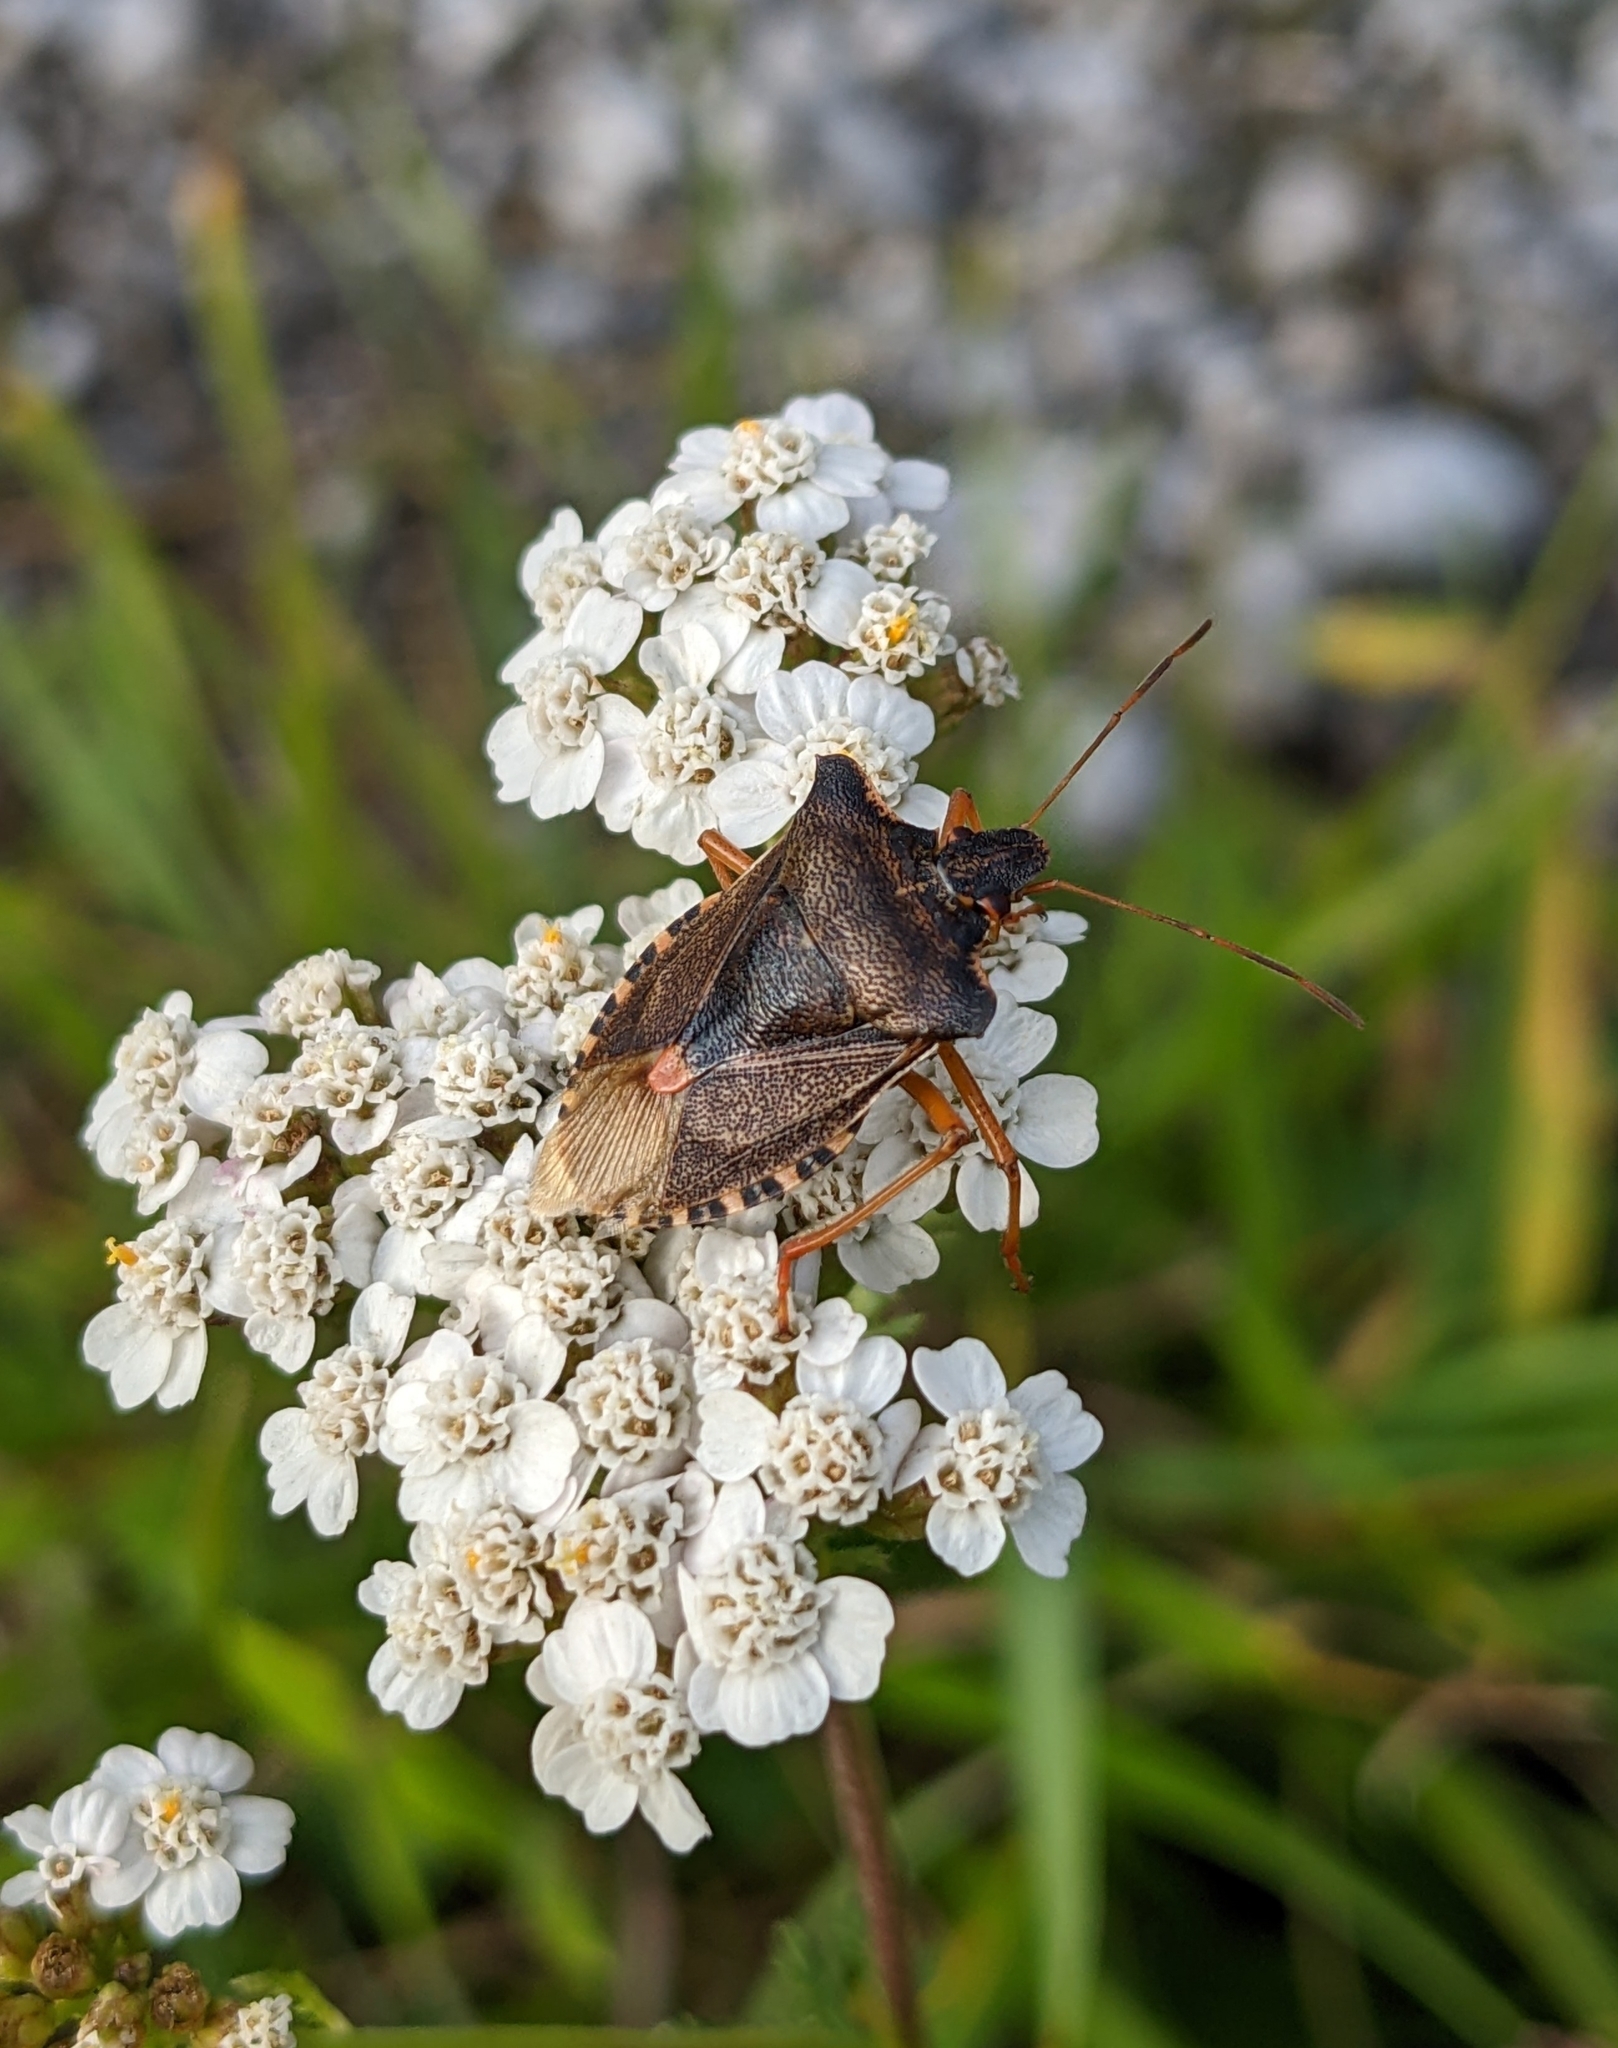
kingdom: Animalia
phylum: Arthropoda
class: Insecta
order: Hemiptera
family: Pentatomidae
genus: Pentatoma
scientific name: Pentatoma rufipes
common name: Forest bug
